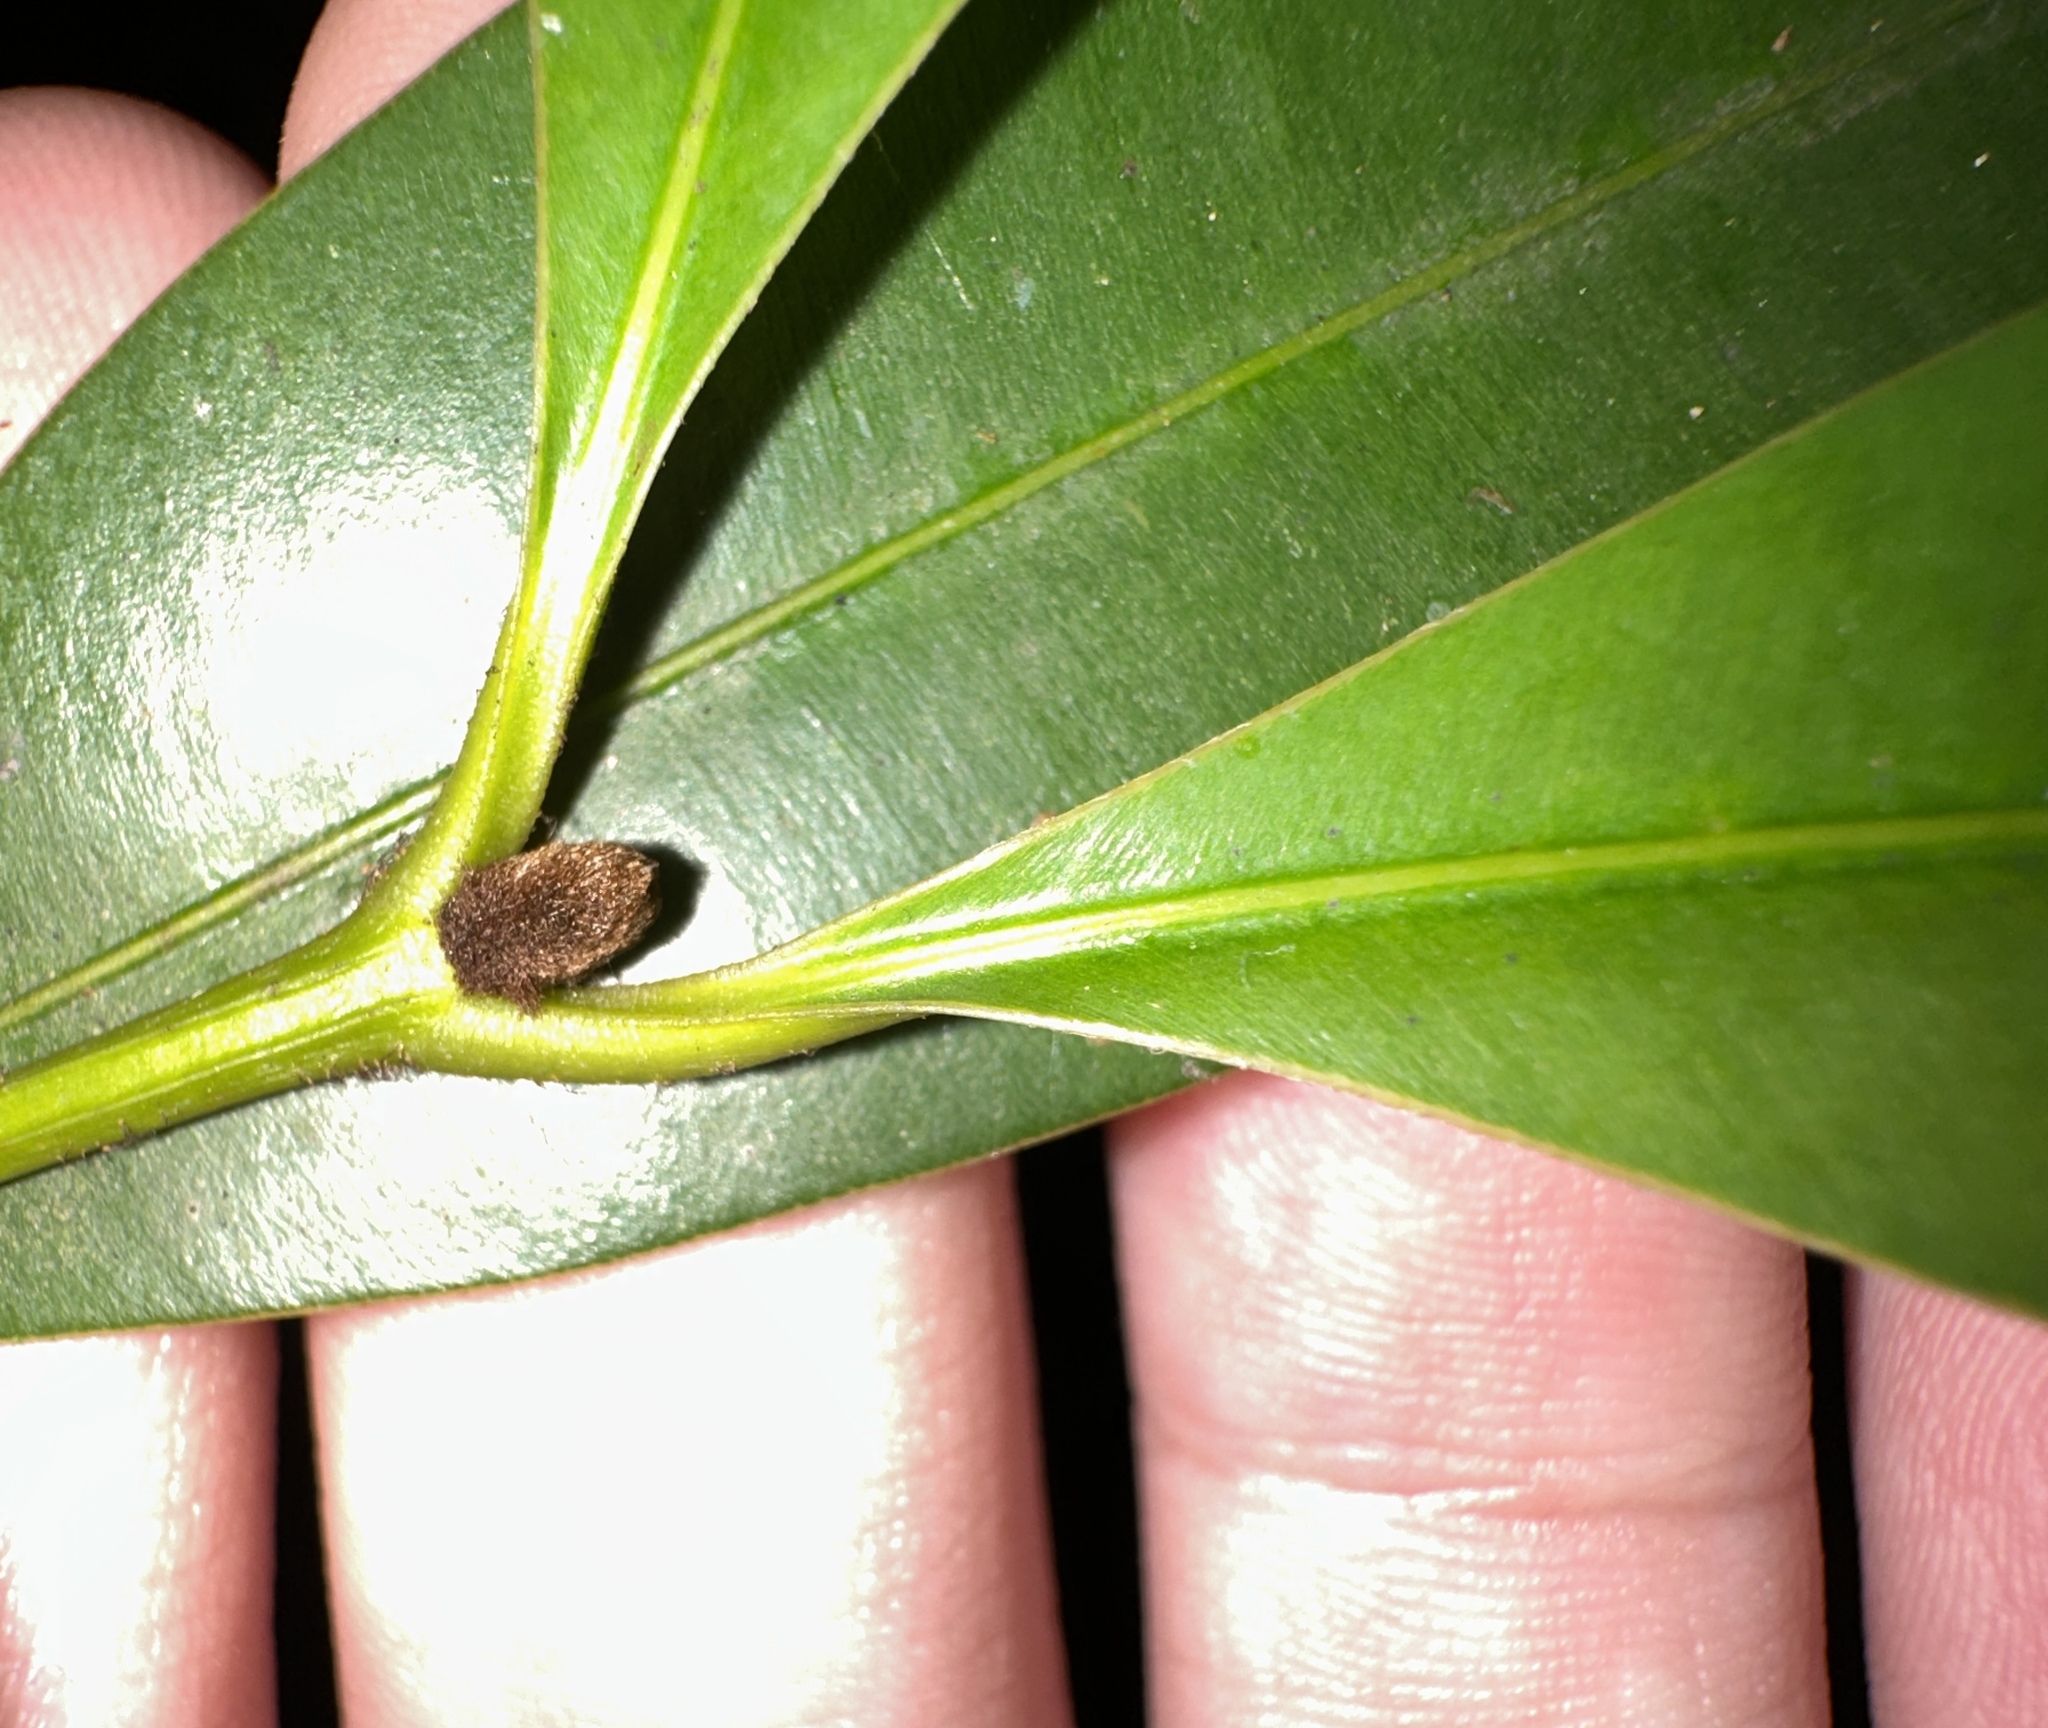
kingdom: Plantae
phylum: Tracheophyta
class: Magnoliopsida
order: Malpighiales
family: Calophyllaceae
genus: Calophyllum
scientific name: Calophyllum ferrugineum
